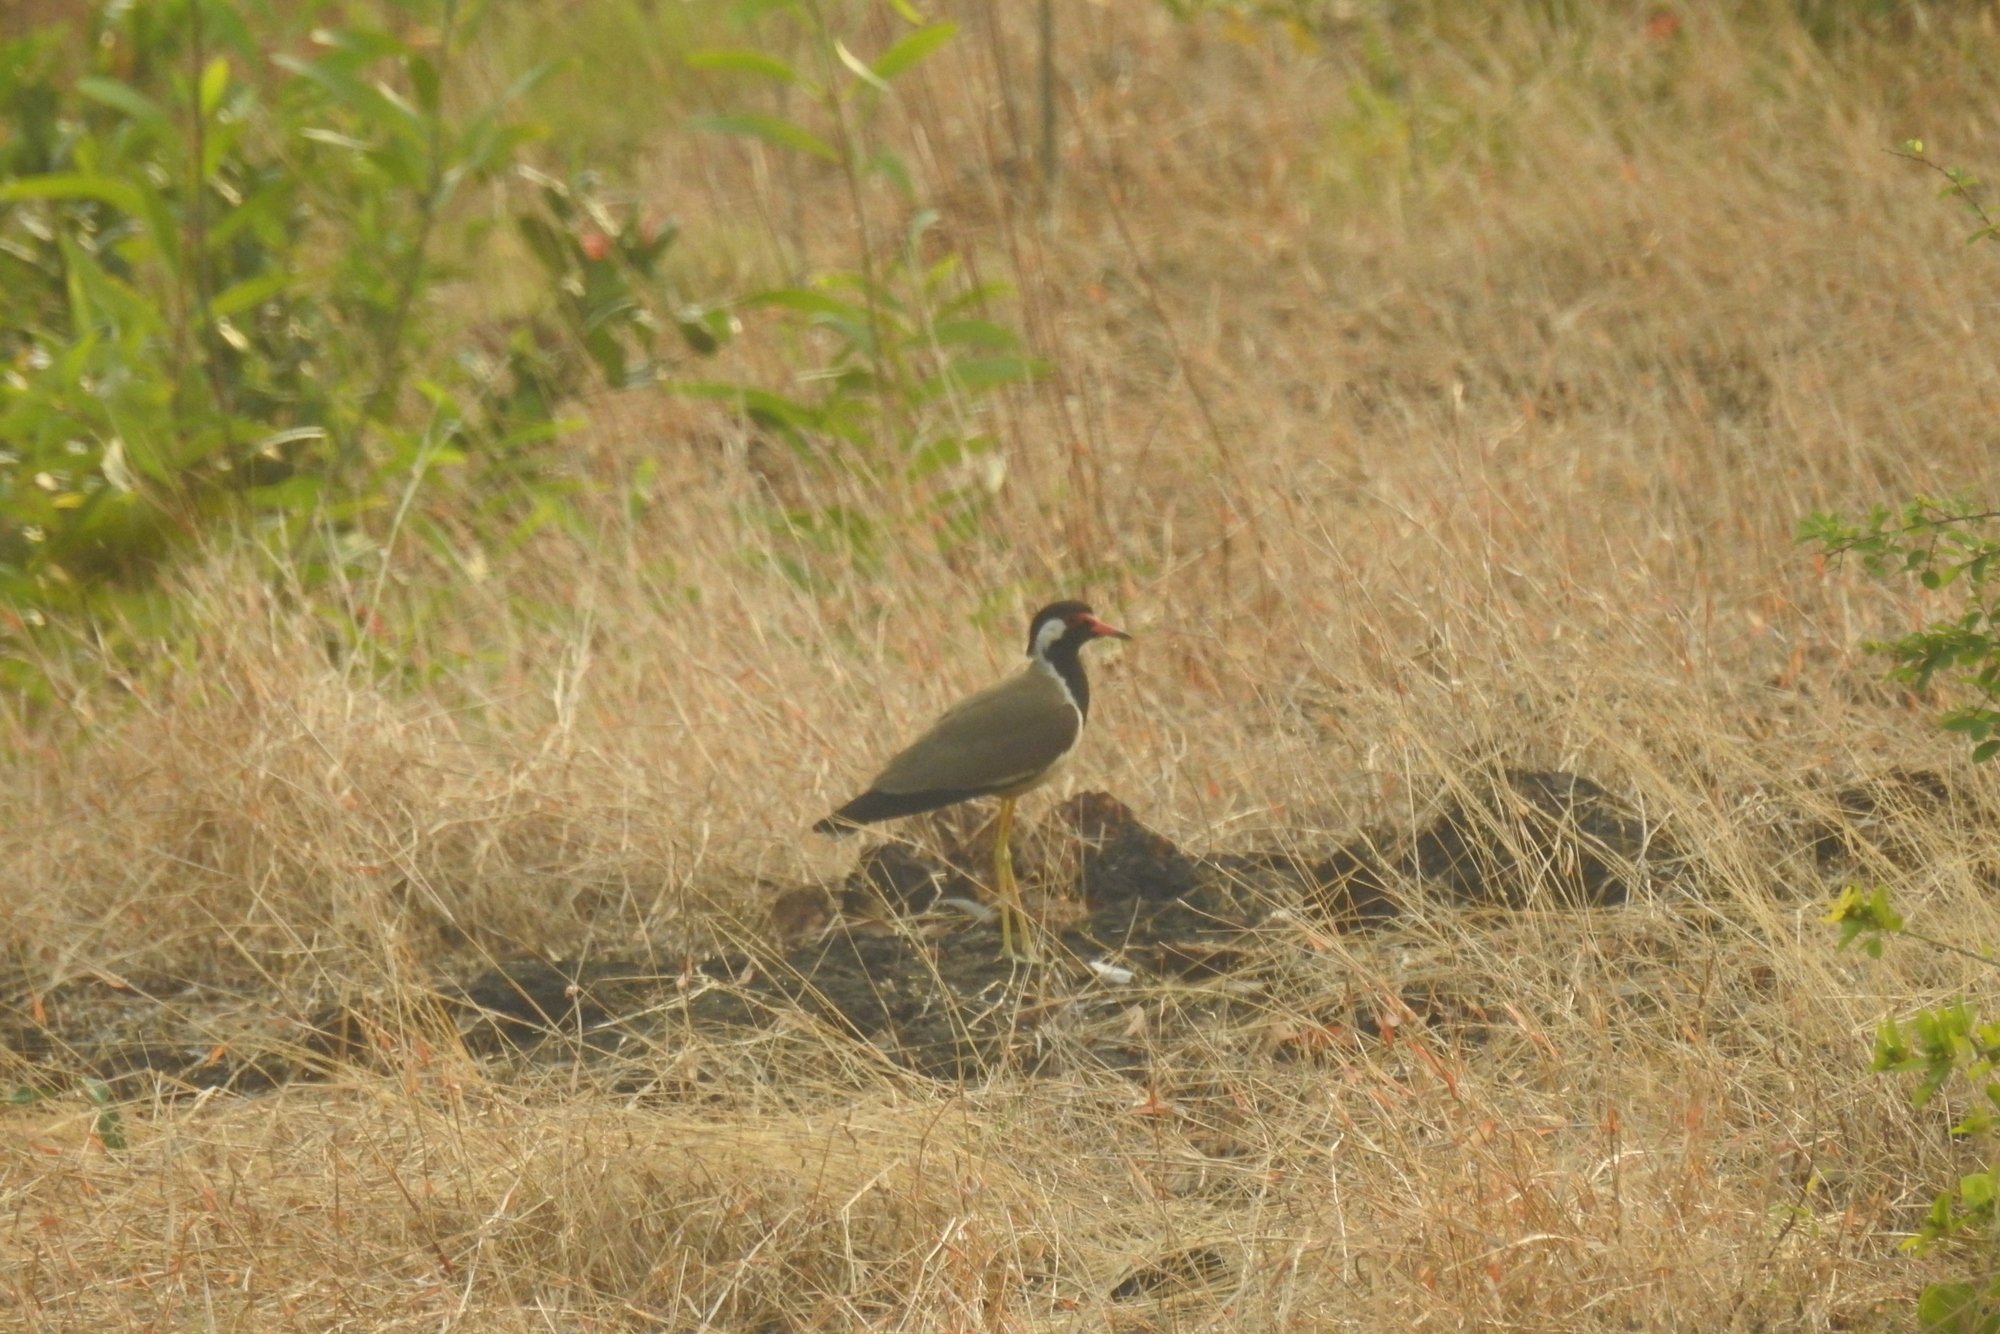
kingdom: Animalia
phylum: Chordata
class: Aves
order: Charadriiformes
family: Charadriidae
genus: Vanellus
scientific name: Vanellus indicus
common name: Red-wattled lapwing
